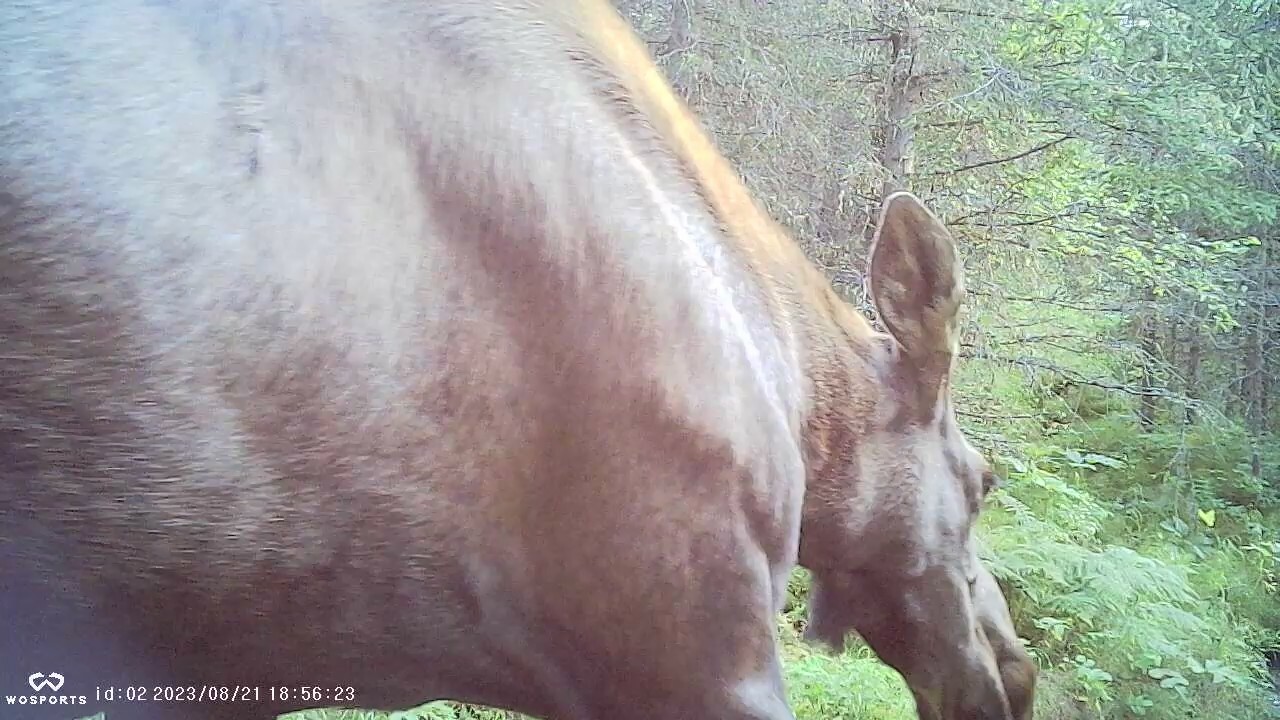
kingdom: Animalia
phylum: Chordata
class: Mammalia
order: Artiodactyla
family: Cervidae
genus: Alces
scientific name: Alces alces
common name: Moose
